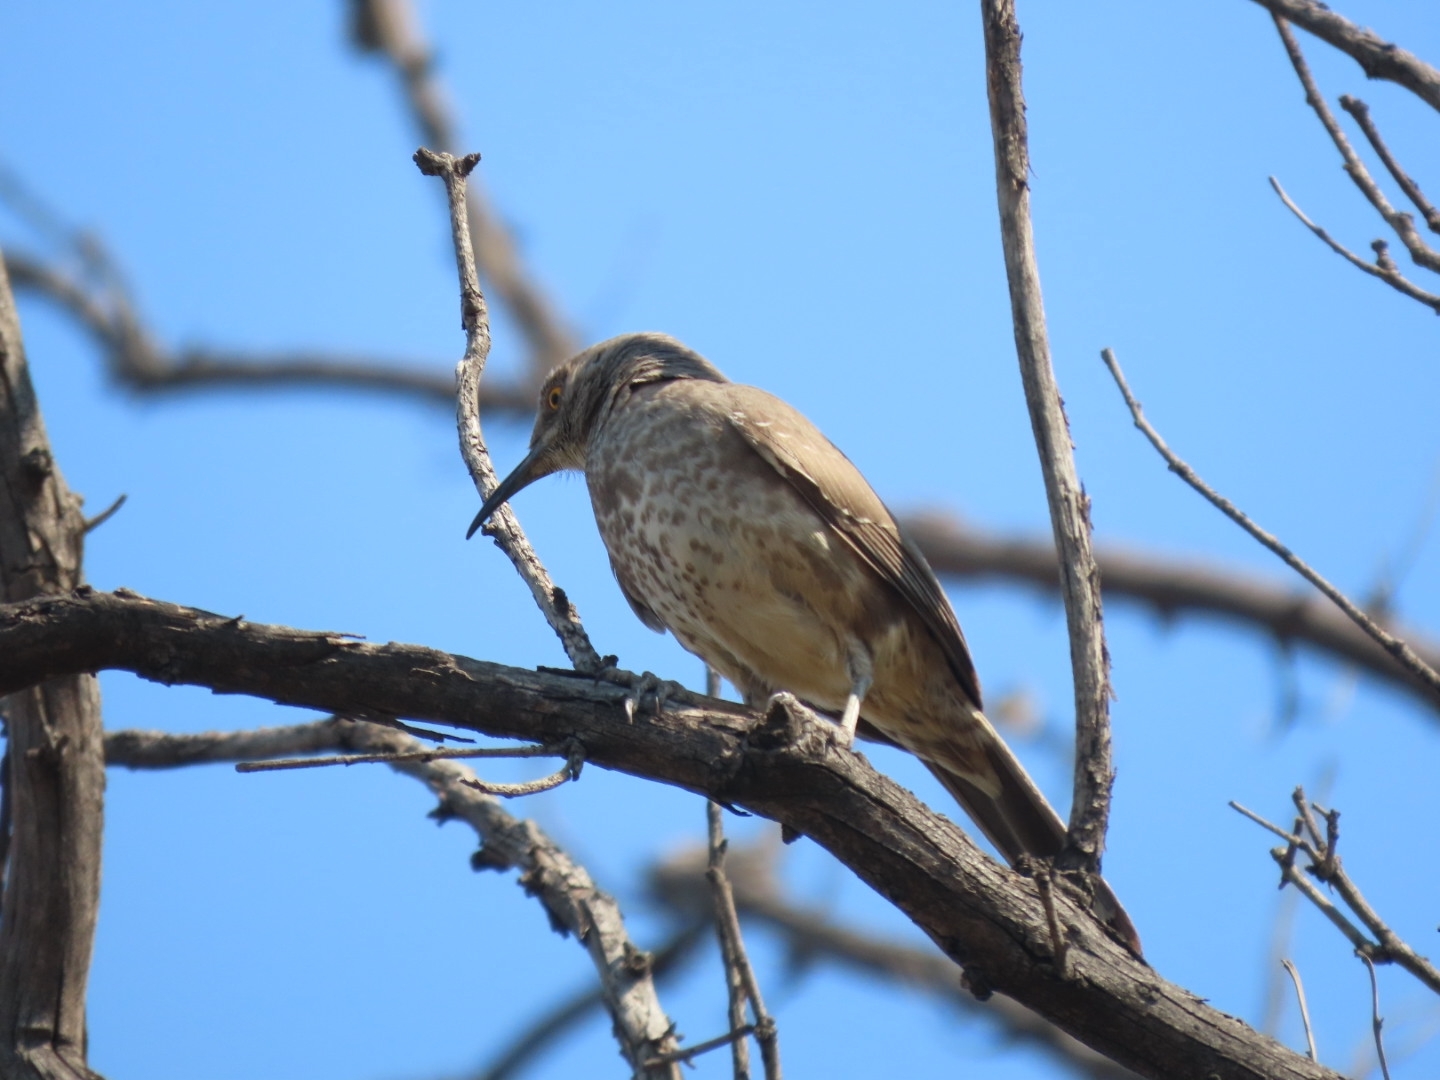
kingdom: Animalia
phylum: Chordata
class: Aves
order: Passeriformes
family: Mimidae
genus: Toxostoma
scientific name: Toxostoma curvirostre
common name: Curve-billed thrasher
